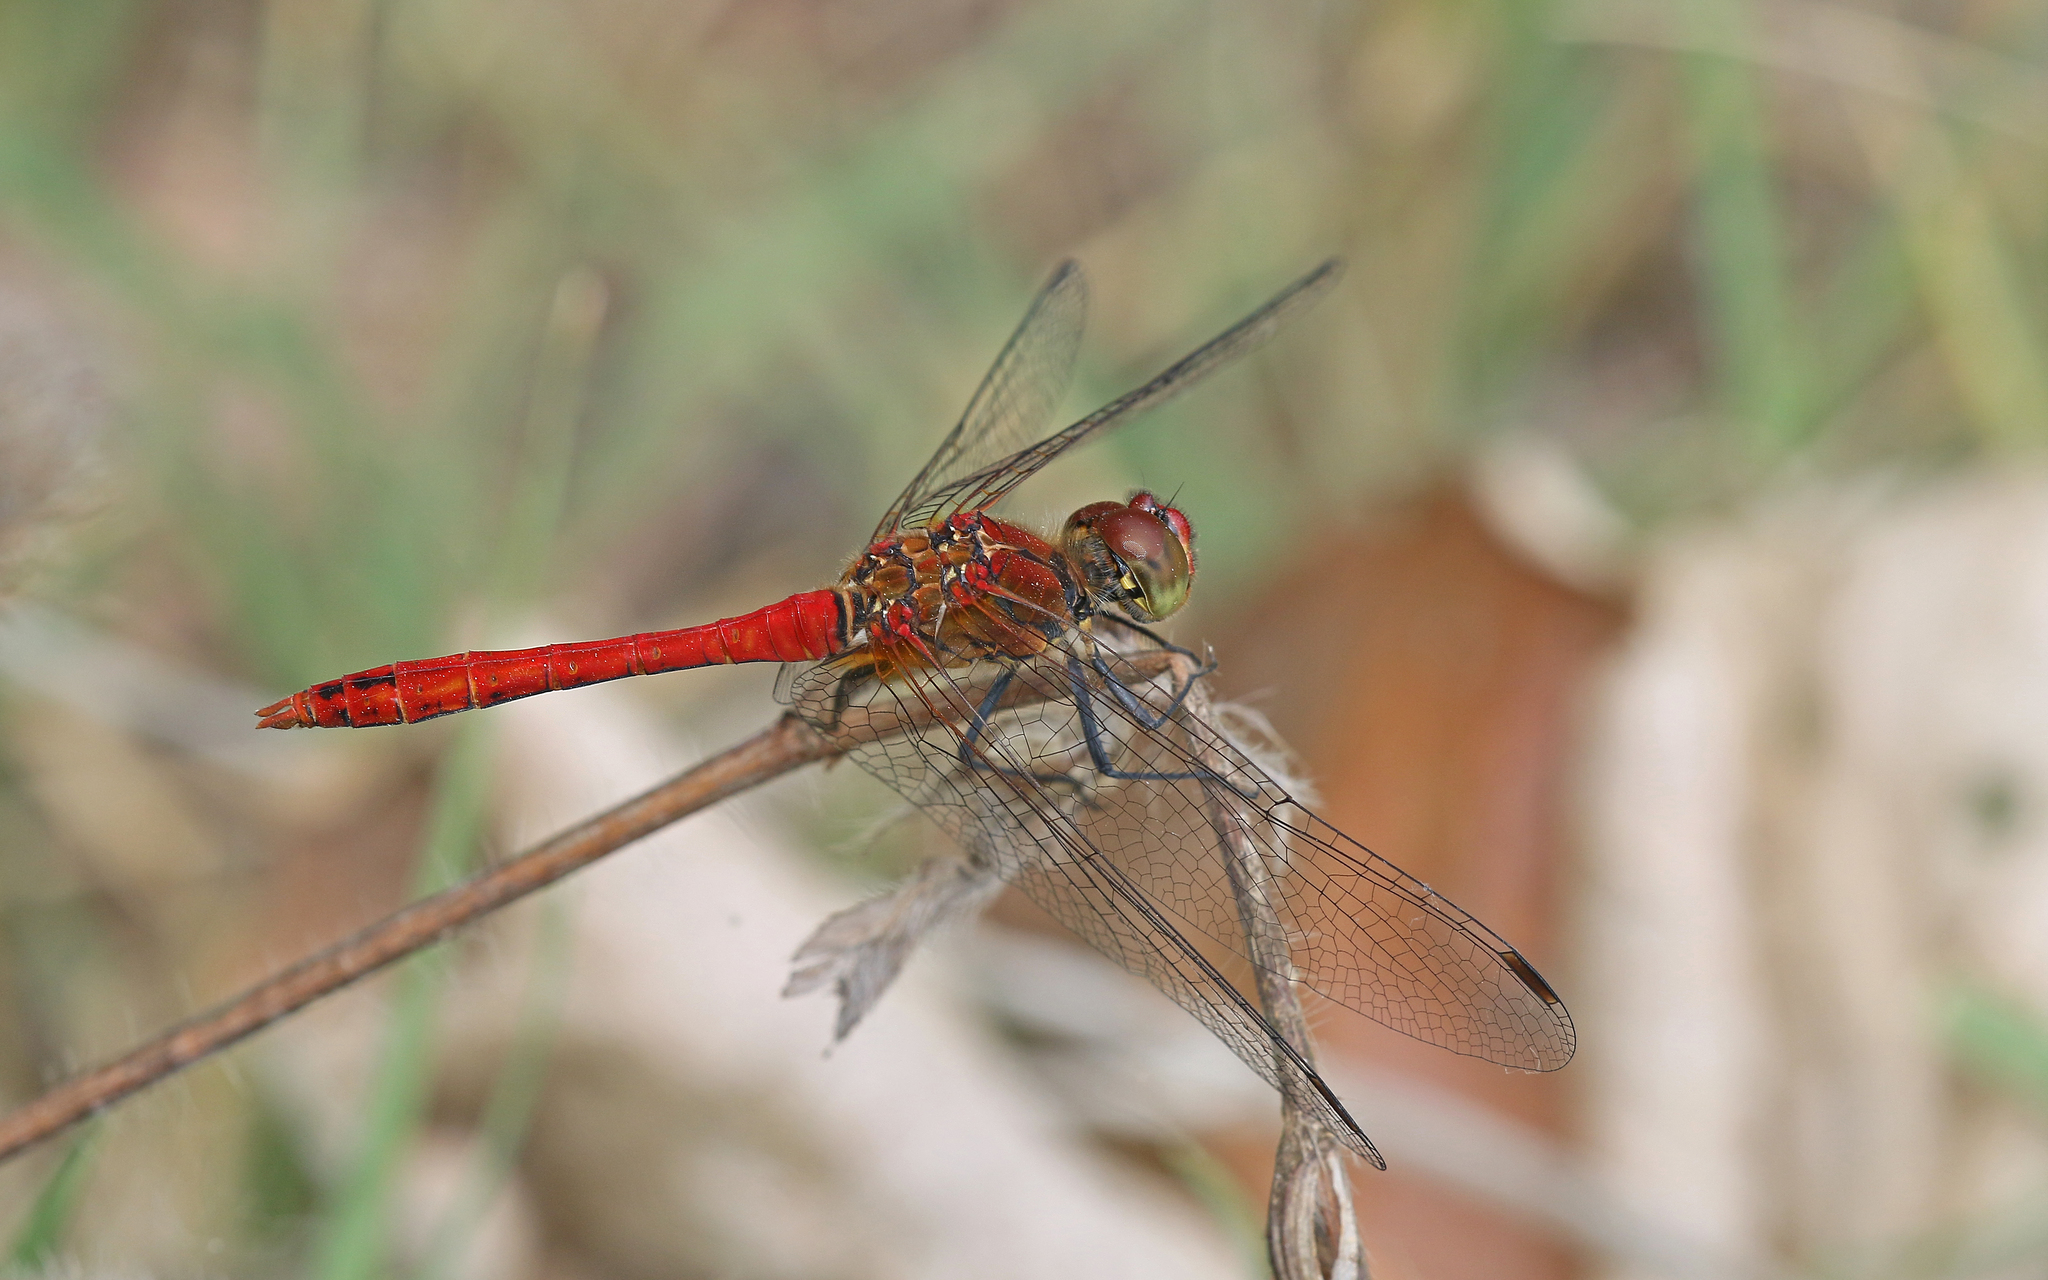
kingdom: Animalia
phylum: Arthropoda
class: Insecta
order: Odonata
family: Libellulidae
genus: Sympetrum
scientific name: Sympetrum sanguineum
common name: Ruddy darter
